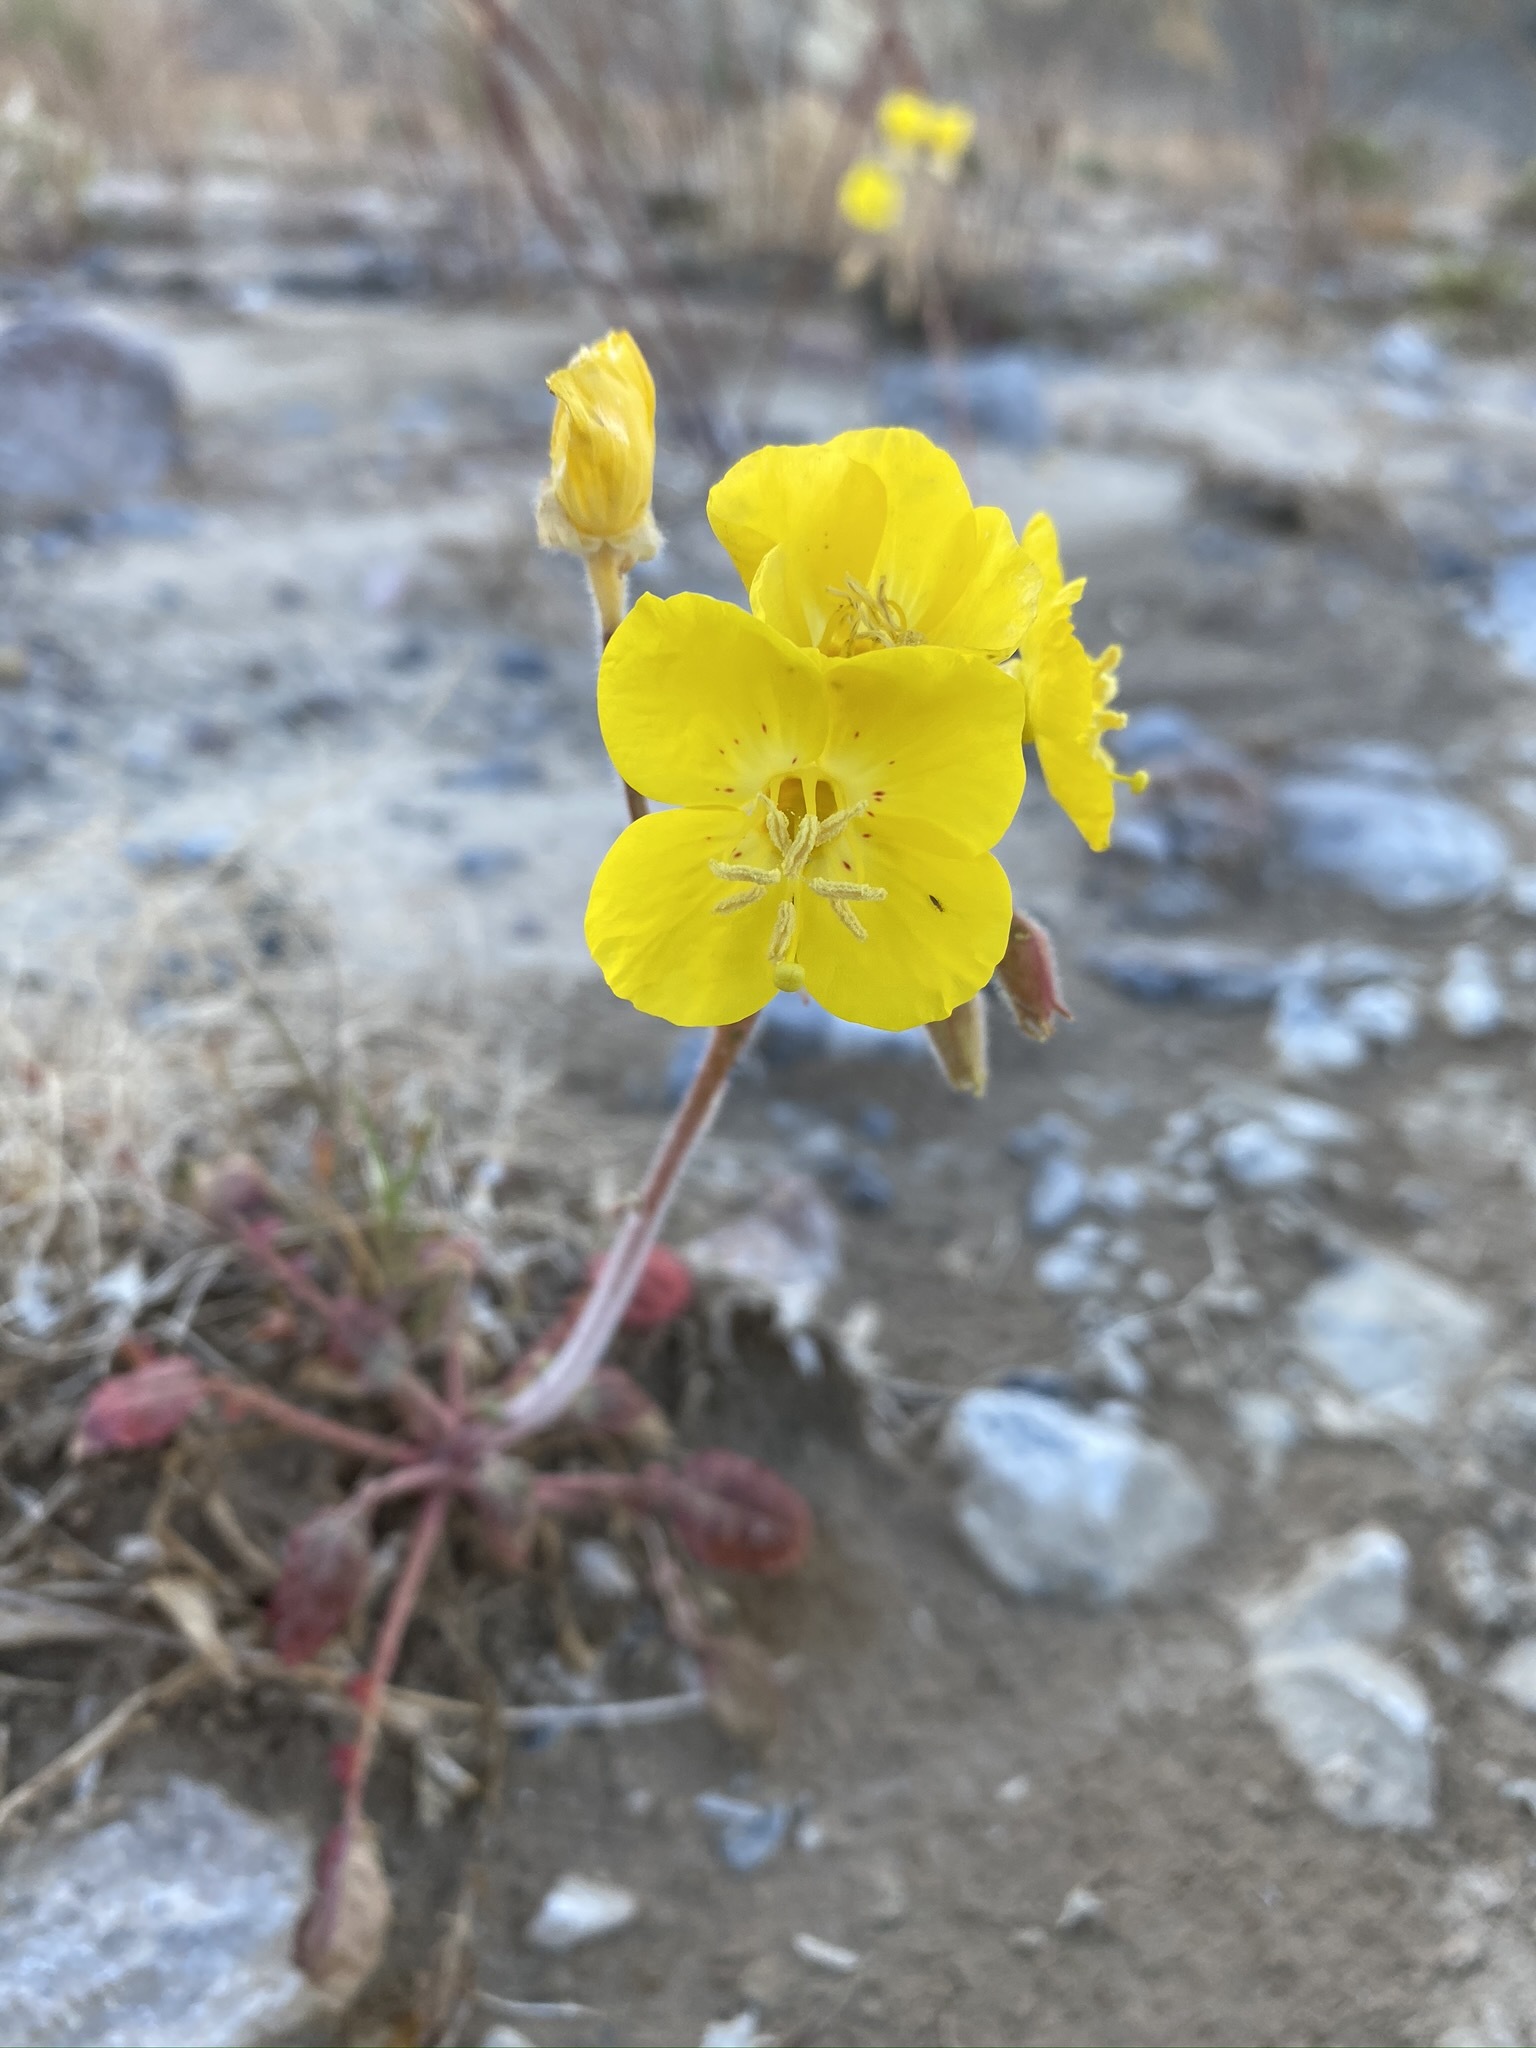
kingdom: Plantae
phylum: Tracheophyta
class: Magnoliopsida
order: Myrtales
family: Onagraceae
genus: Chylismia
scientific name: Chylismia brevipes
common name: Yellow cups
